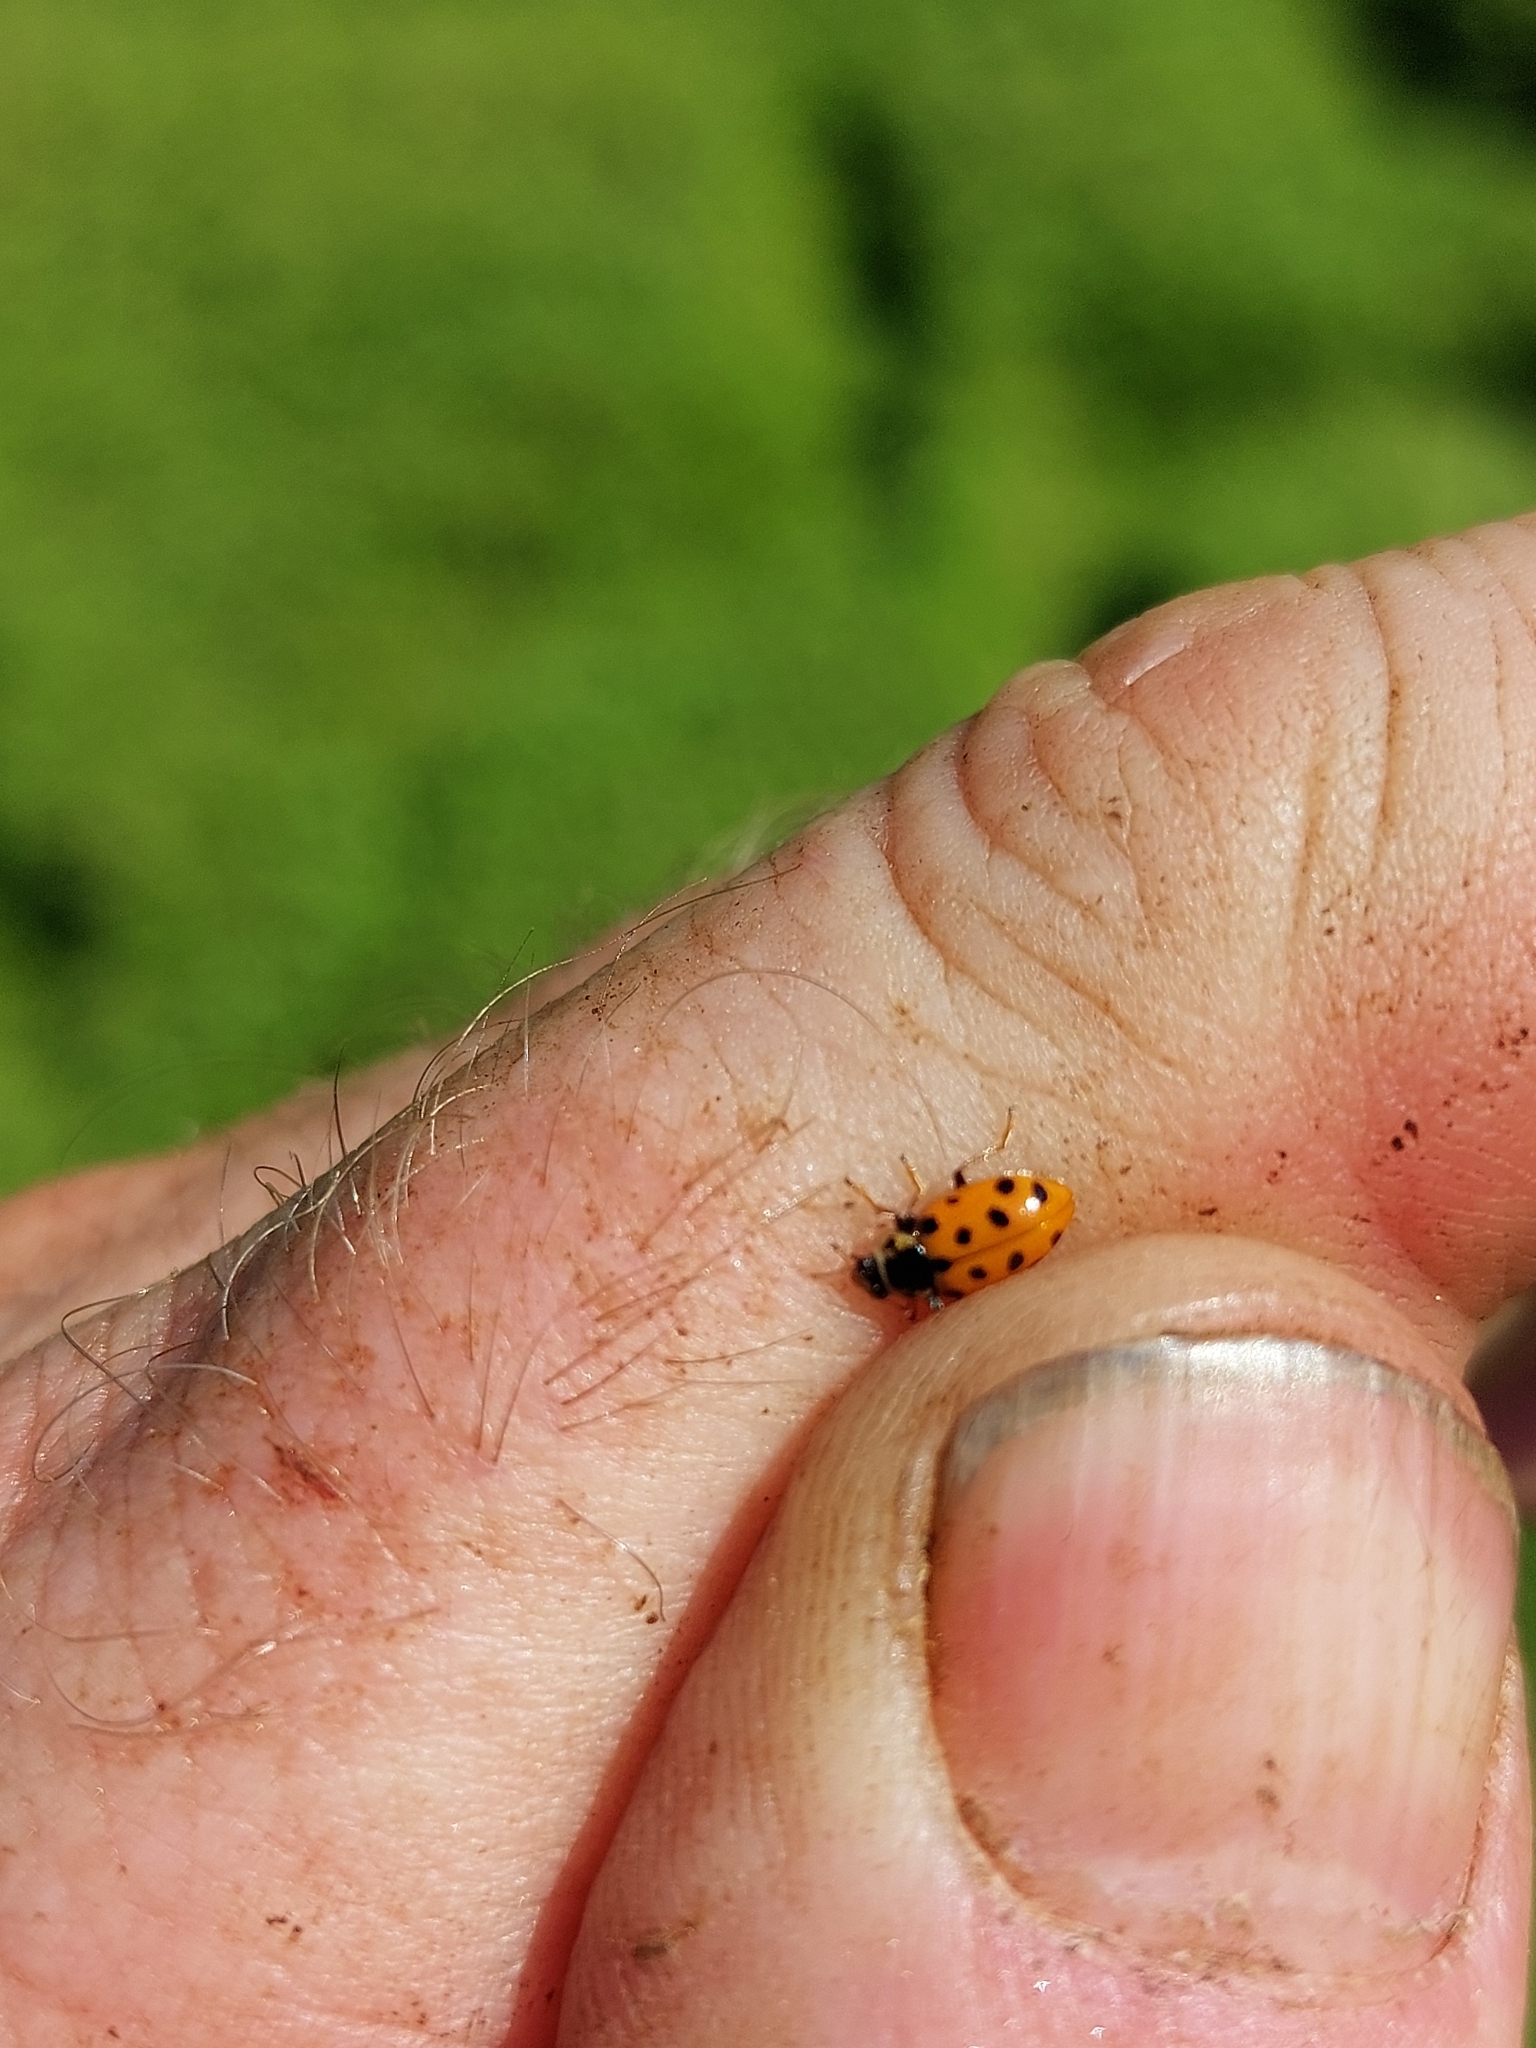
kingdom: Animalia
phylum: Arthropoda
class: Insecta
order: Coleoptera
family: Coccinellidae
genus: Hippodamia
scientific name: Hippodamia tredecimpunctata
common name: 13-spot ladybird
